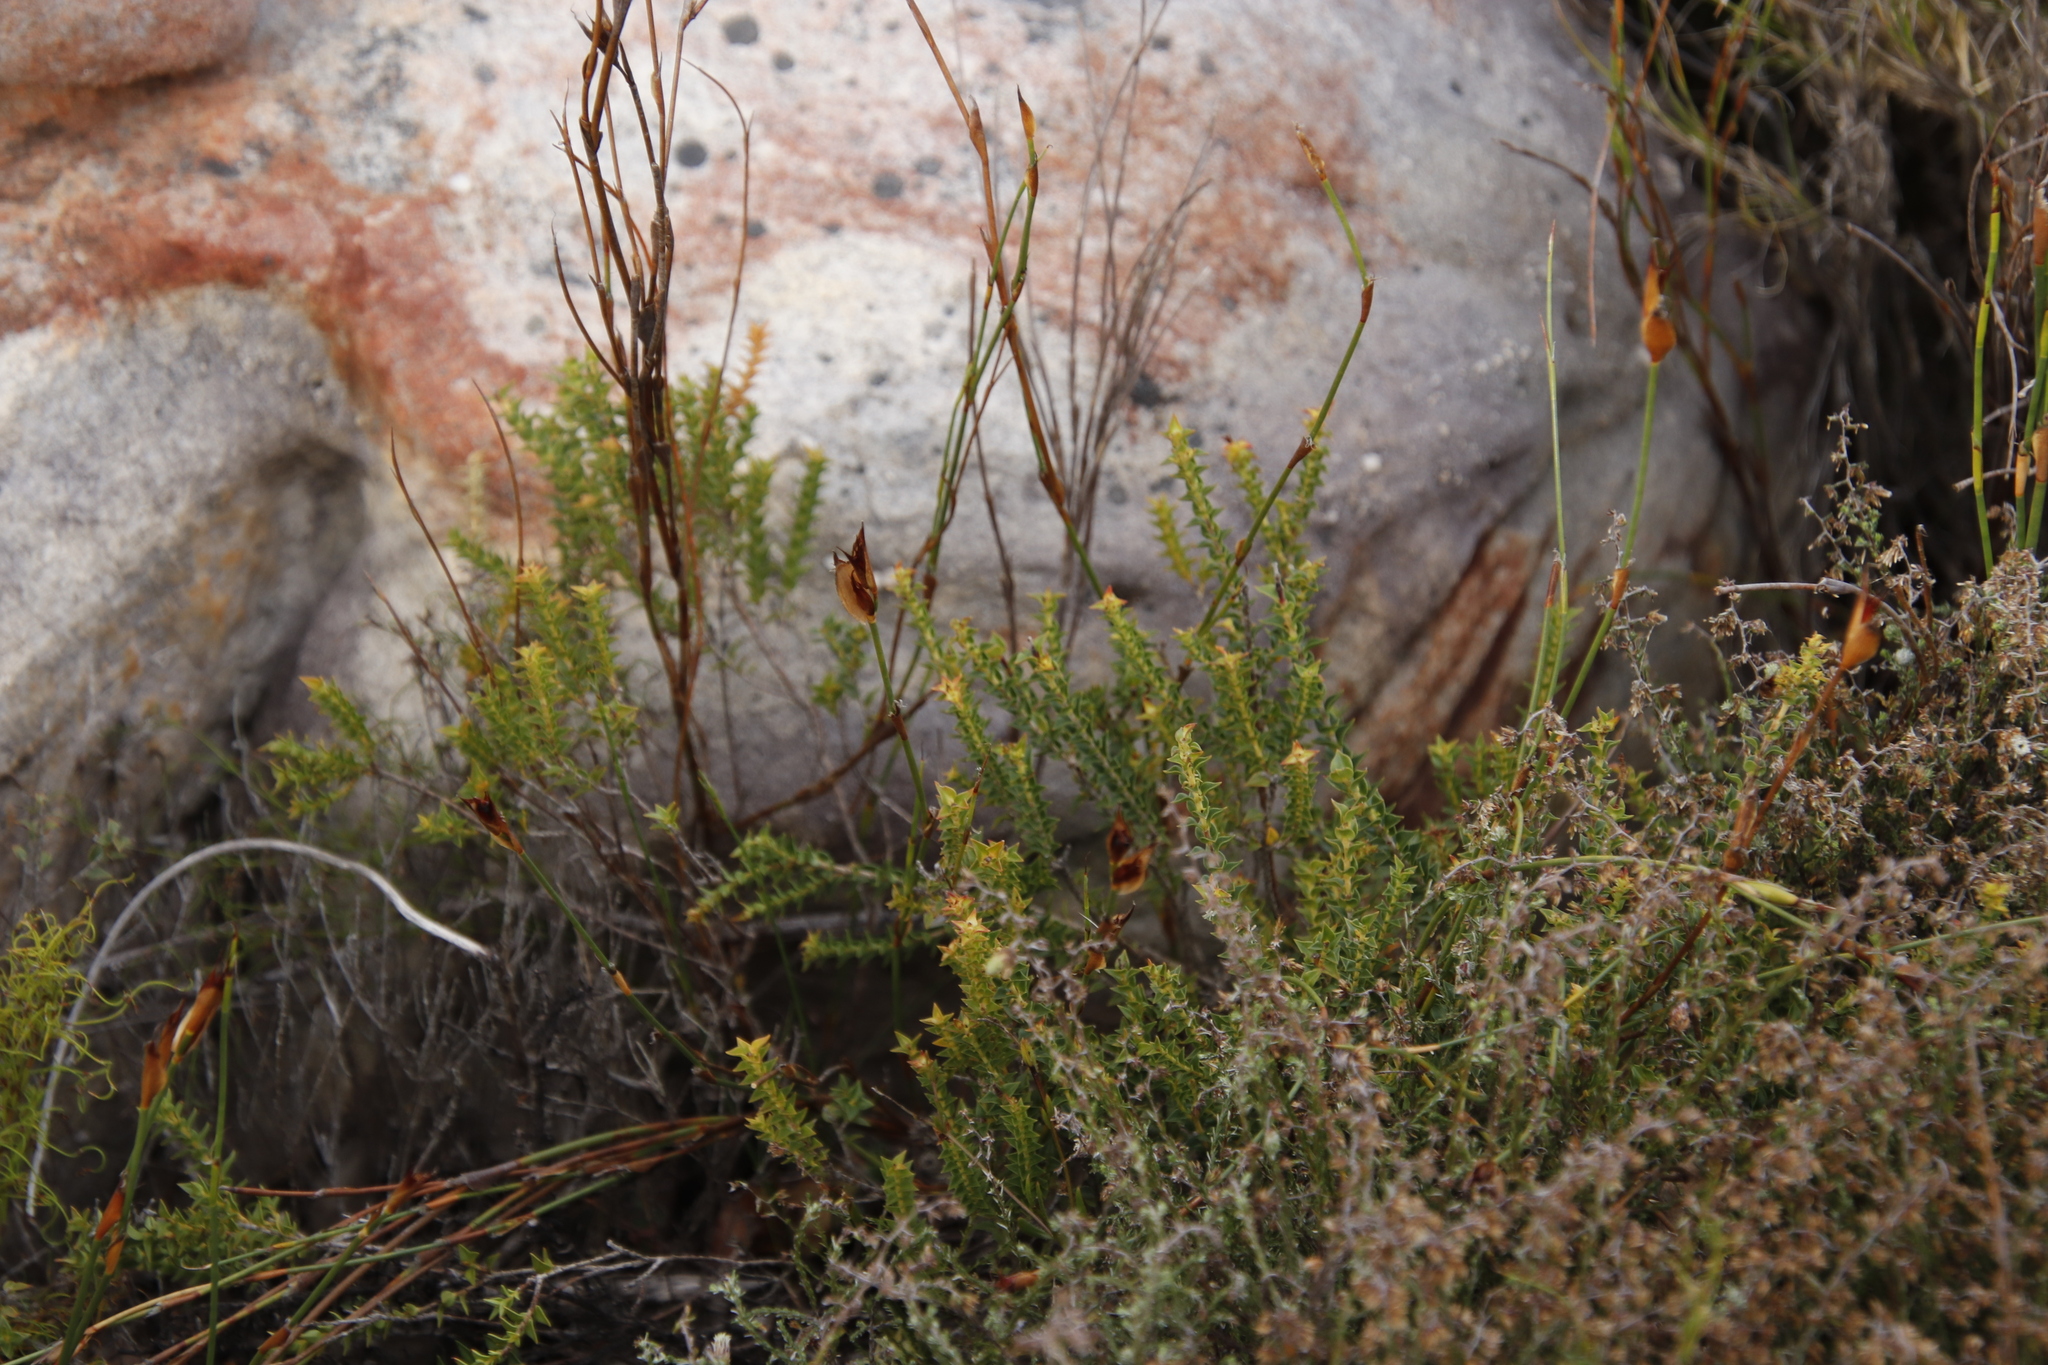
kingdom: Plantae
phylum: Tracheophyta
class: Magnoliopsida
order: Myrtales
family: Penaeaceae
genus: Penaea
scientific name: Penaea mucronata
